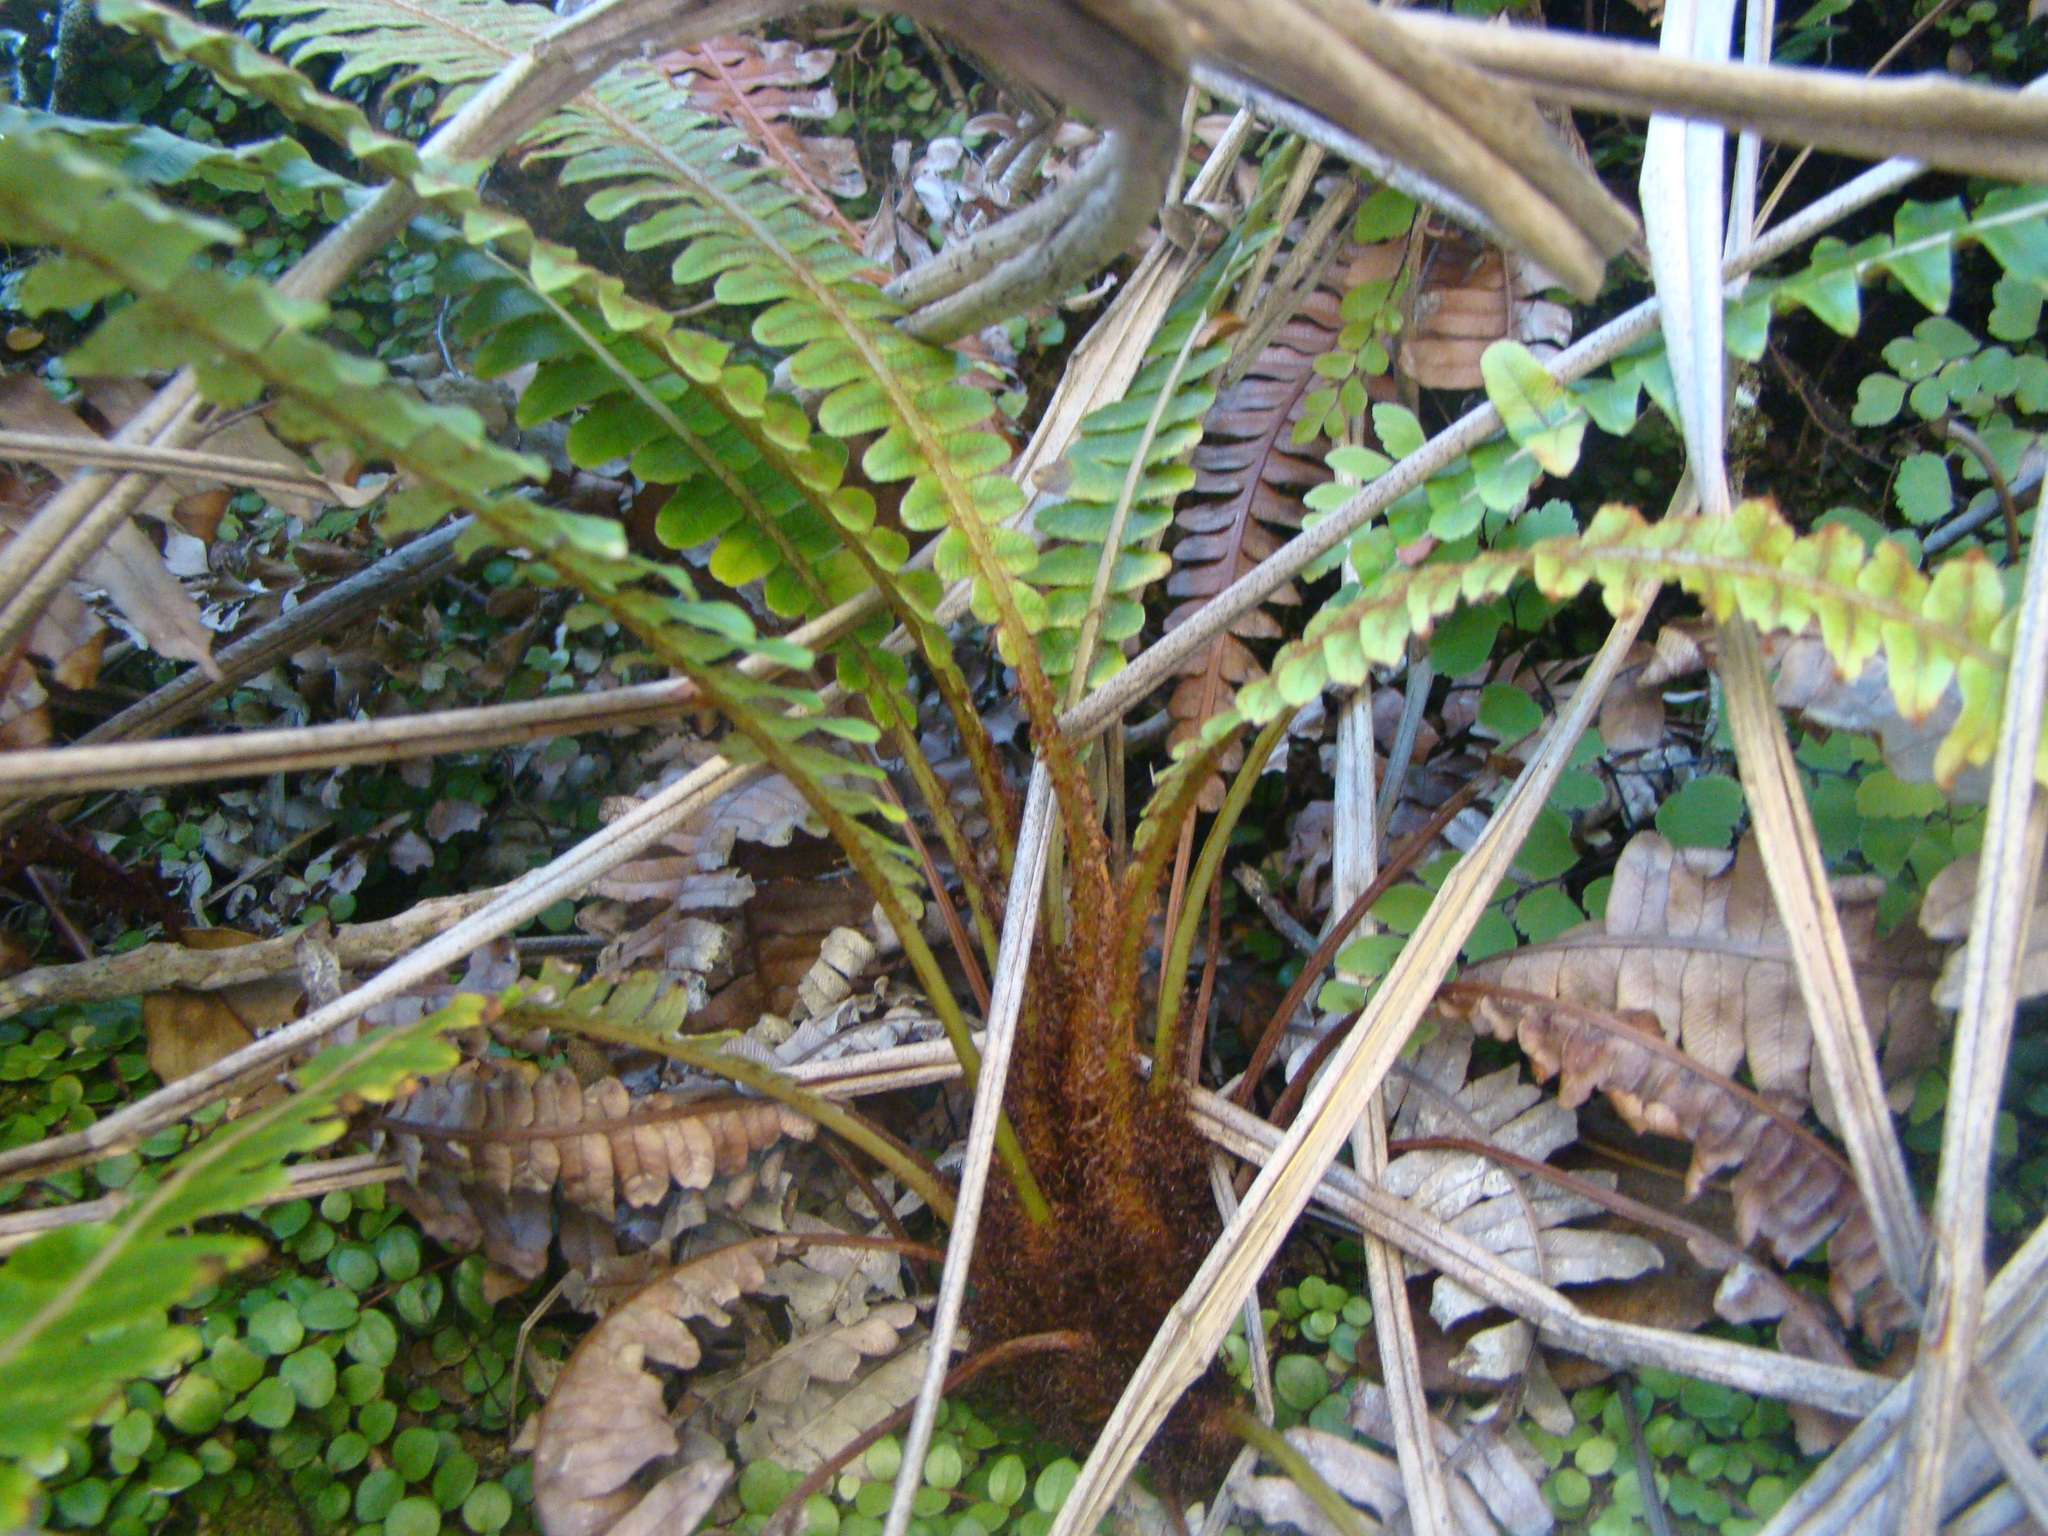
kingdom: Plantae
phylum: Tracheophyta
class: Polypodiopsida
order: Polypodiales
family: Blechnaceae
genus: Lomaria
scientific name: Lomaria discolor
